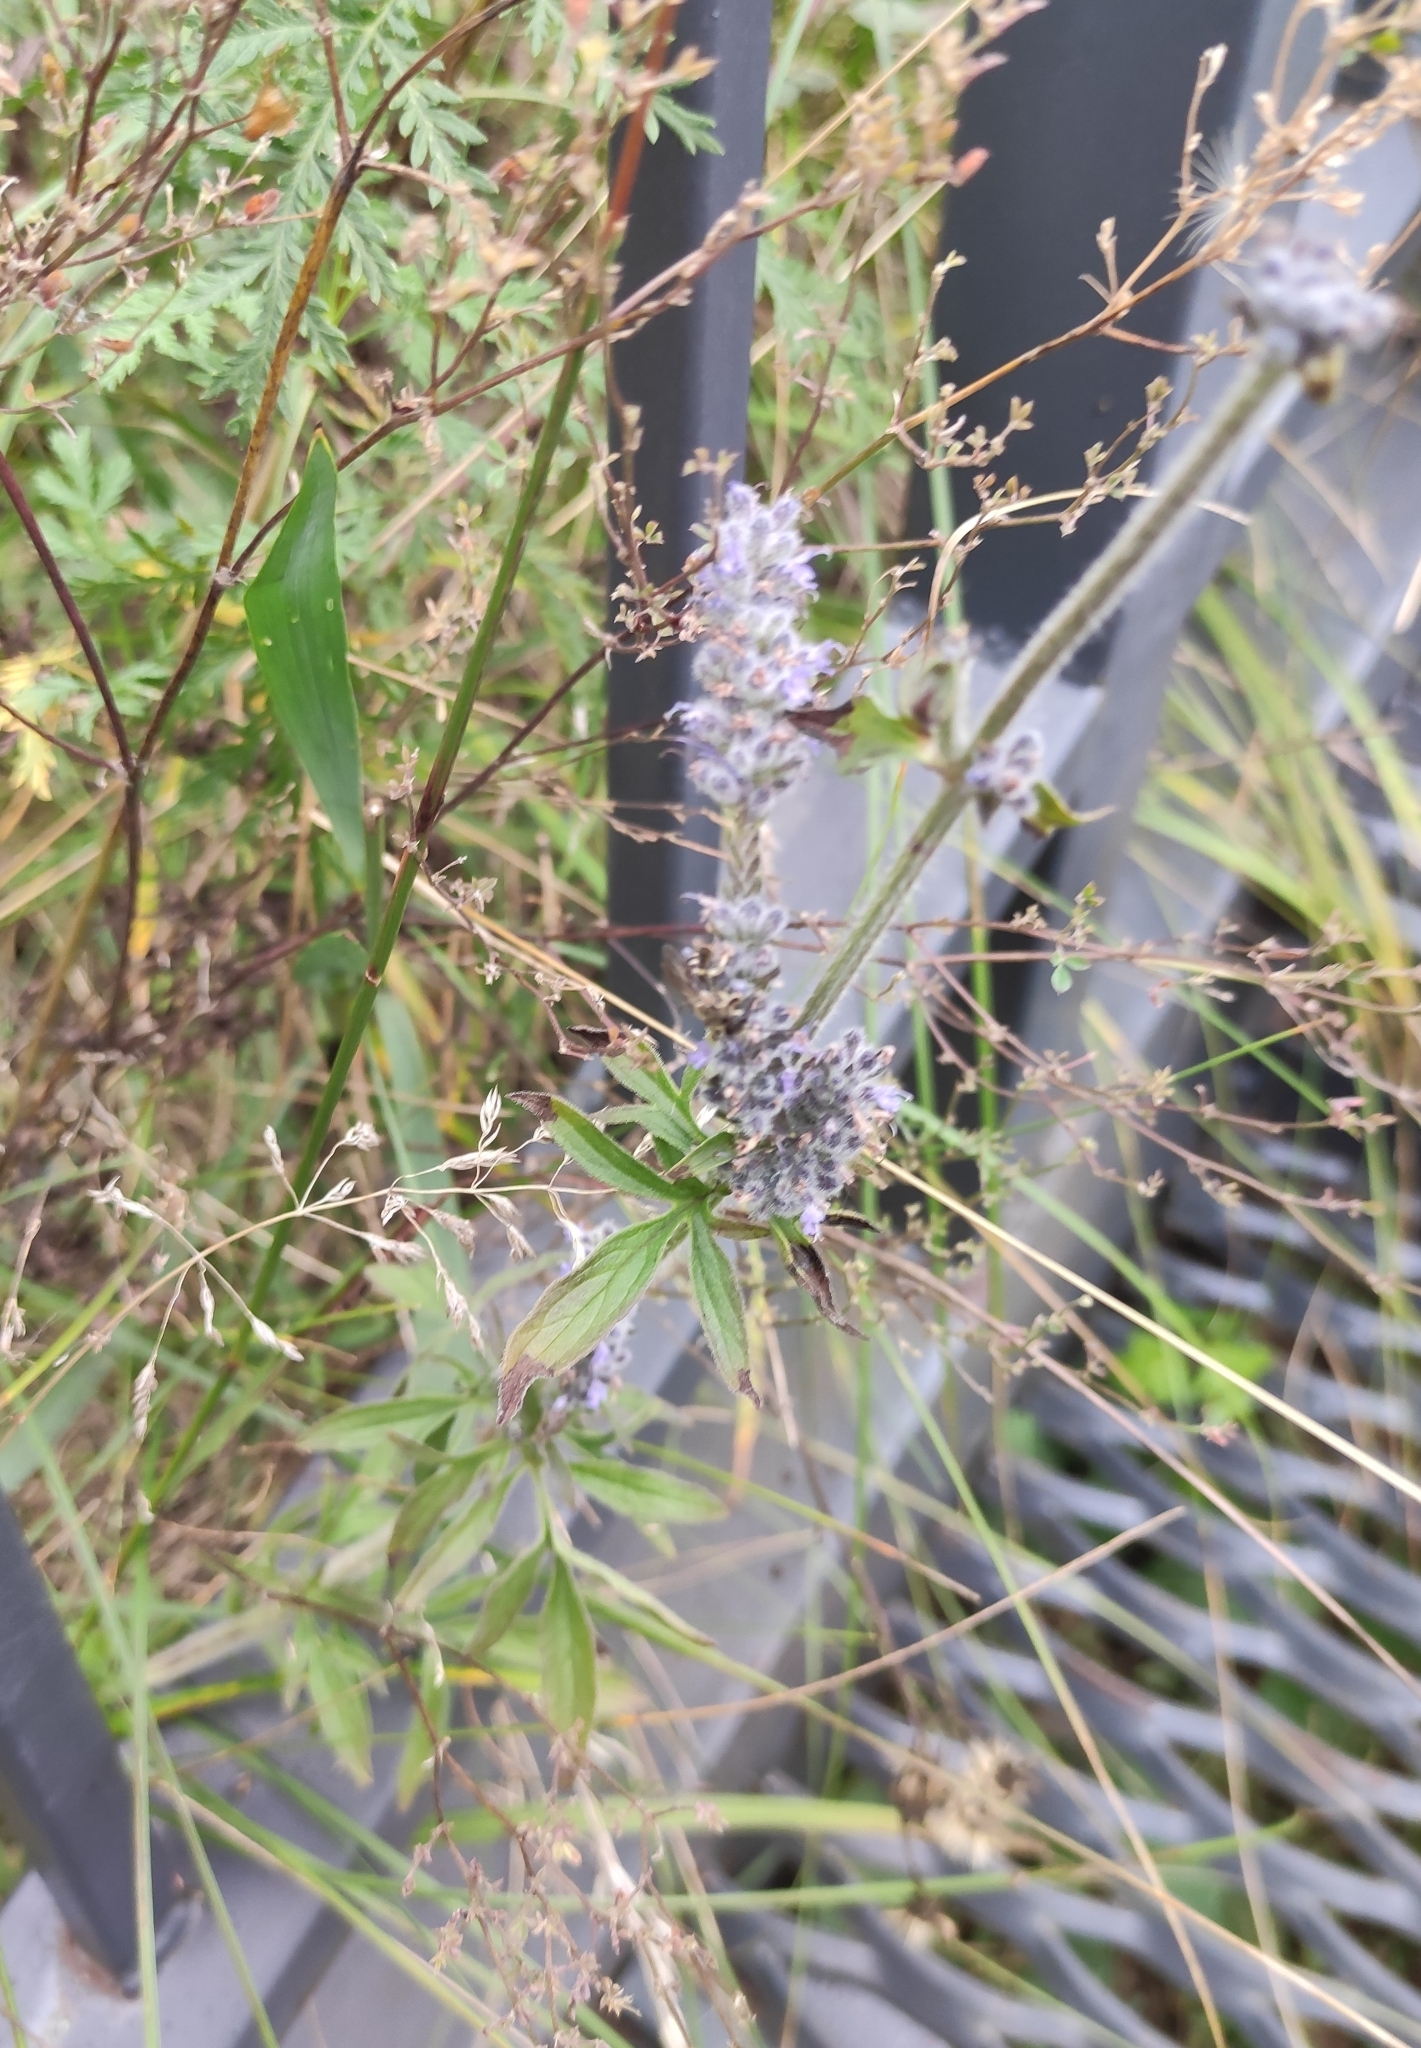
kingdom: Plantae
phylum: Tracheophyta
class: Magnoliopsida
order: Lamiales
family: Lamiaceae
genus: Nepeta
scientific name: Nepeta multifida
